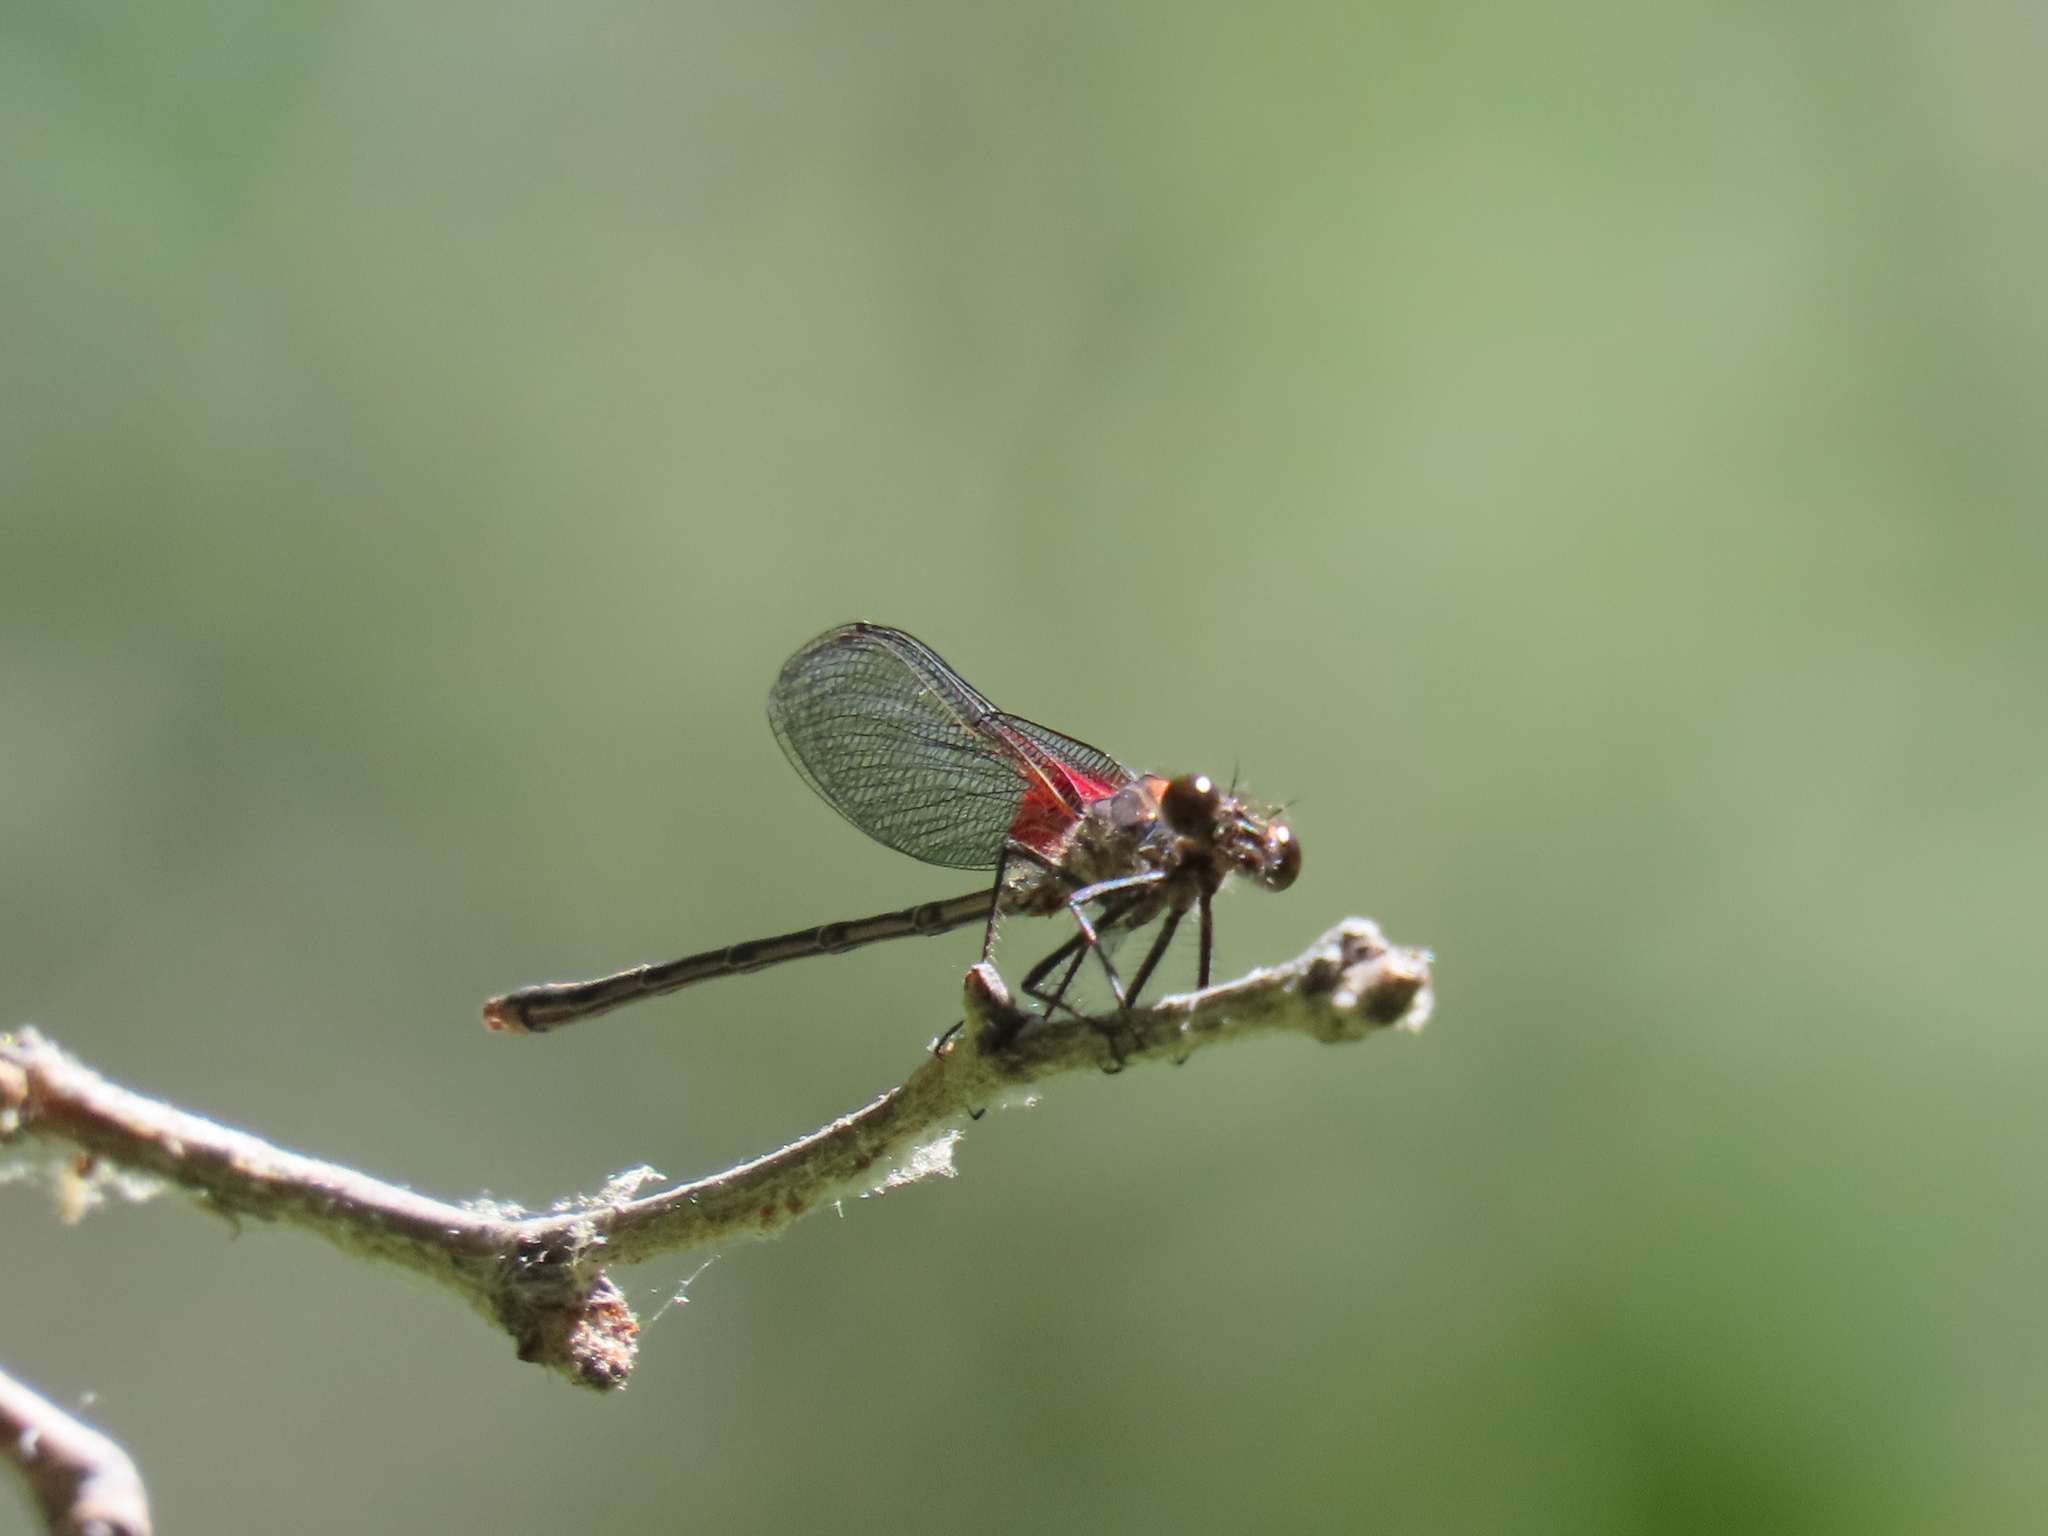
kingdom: Animalia
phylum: Arthropoda
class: Insecta
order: Odonata
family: Calopterygidae
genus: Hetaerina
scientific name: Hetaerina americana
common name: American rubyspot
